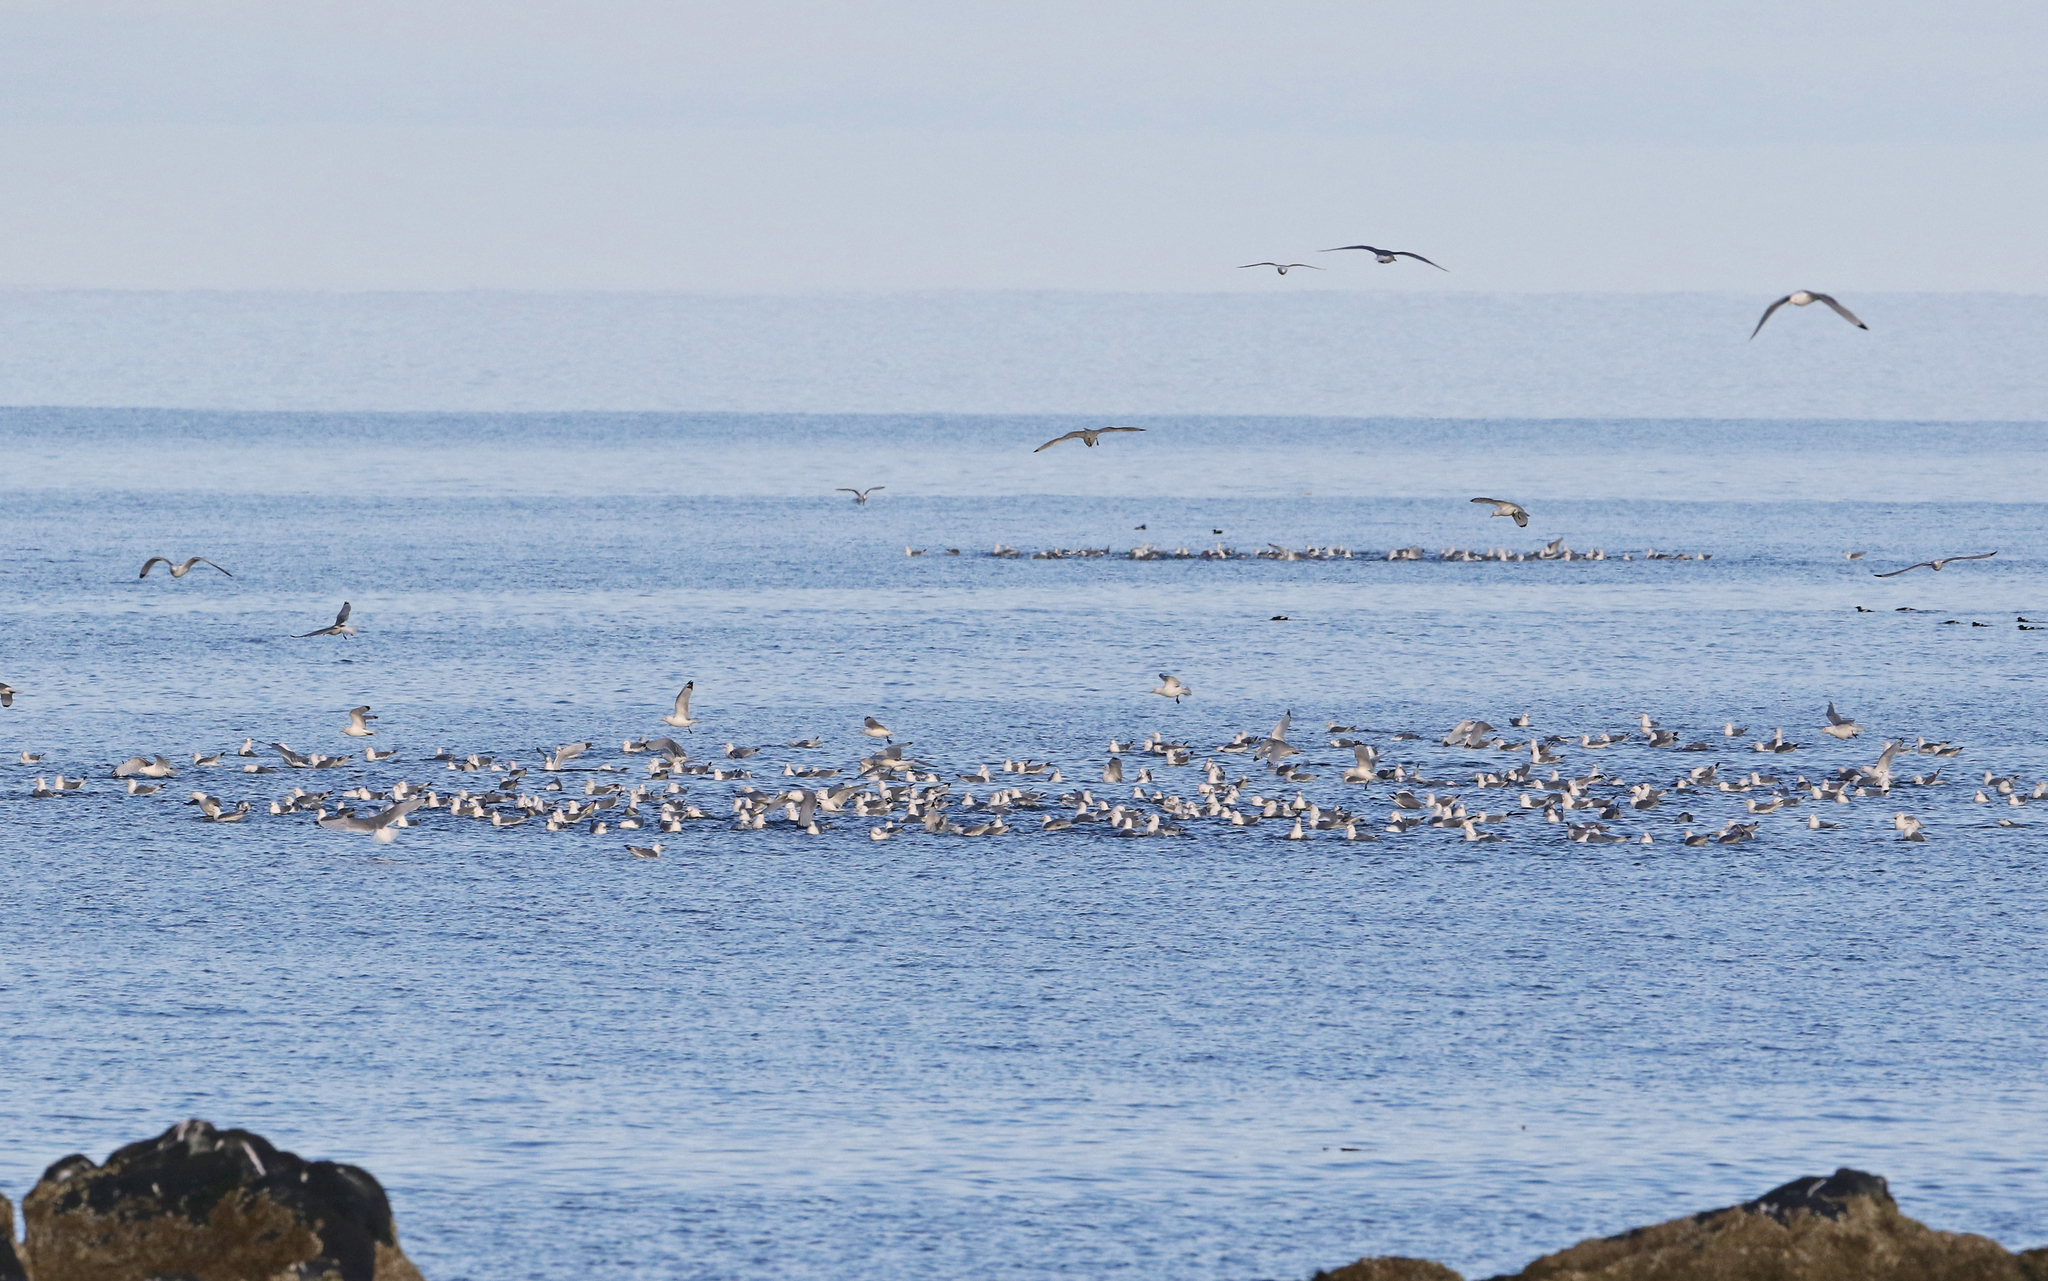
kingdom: Animalia
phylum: Chordata
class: Aves
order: Charadriiformes
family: Laridae
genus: Rissa
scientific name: Rissa tridactyla
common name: Black-legged kittiwake
